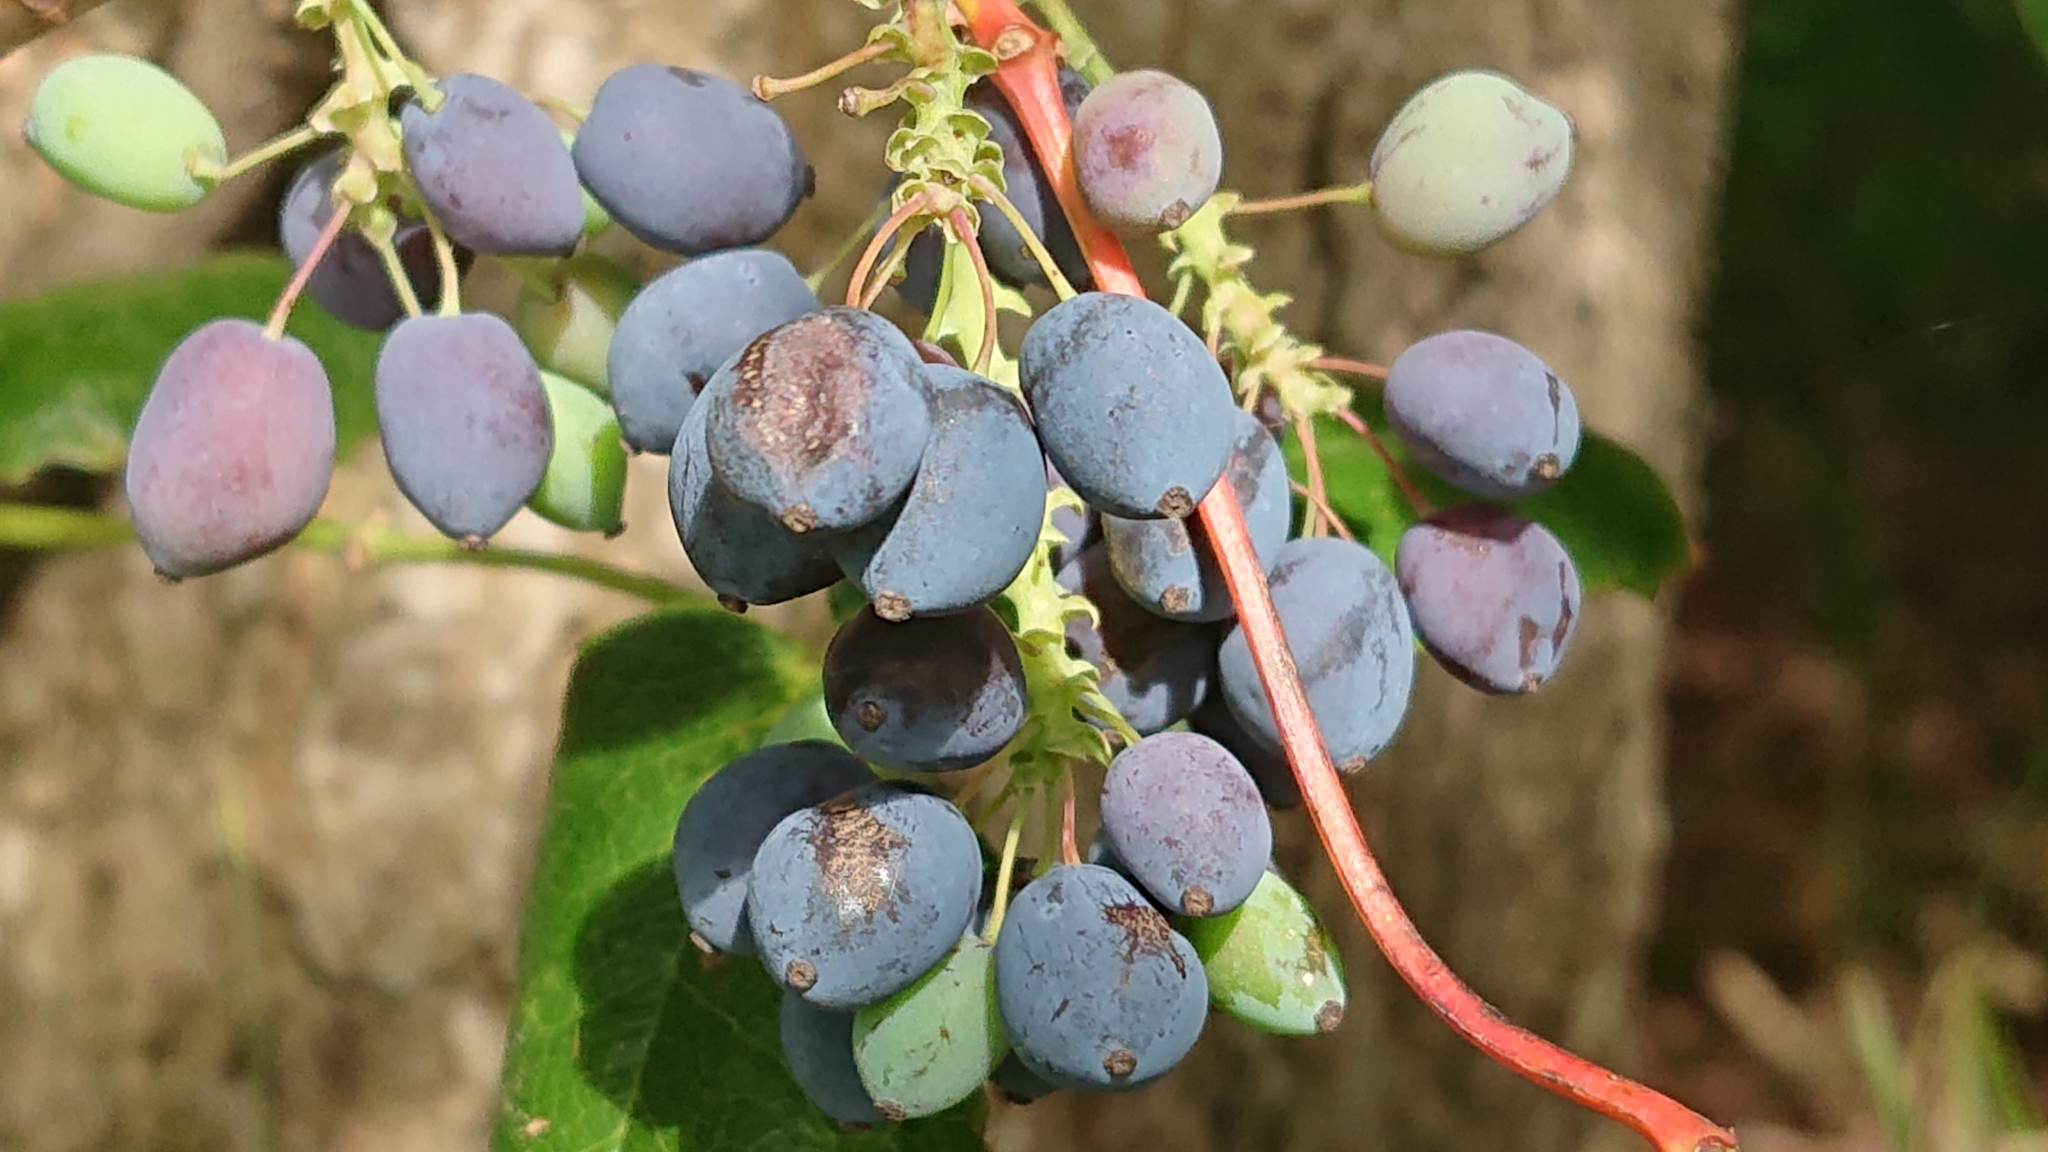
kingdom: Plantae
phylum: Tracheophyta
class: Magnoliopsida
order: Ranunculales
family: Berberidaceae
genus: Mahonia
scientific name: Mahonia aquifolium
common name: Oregon-grape
